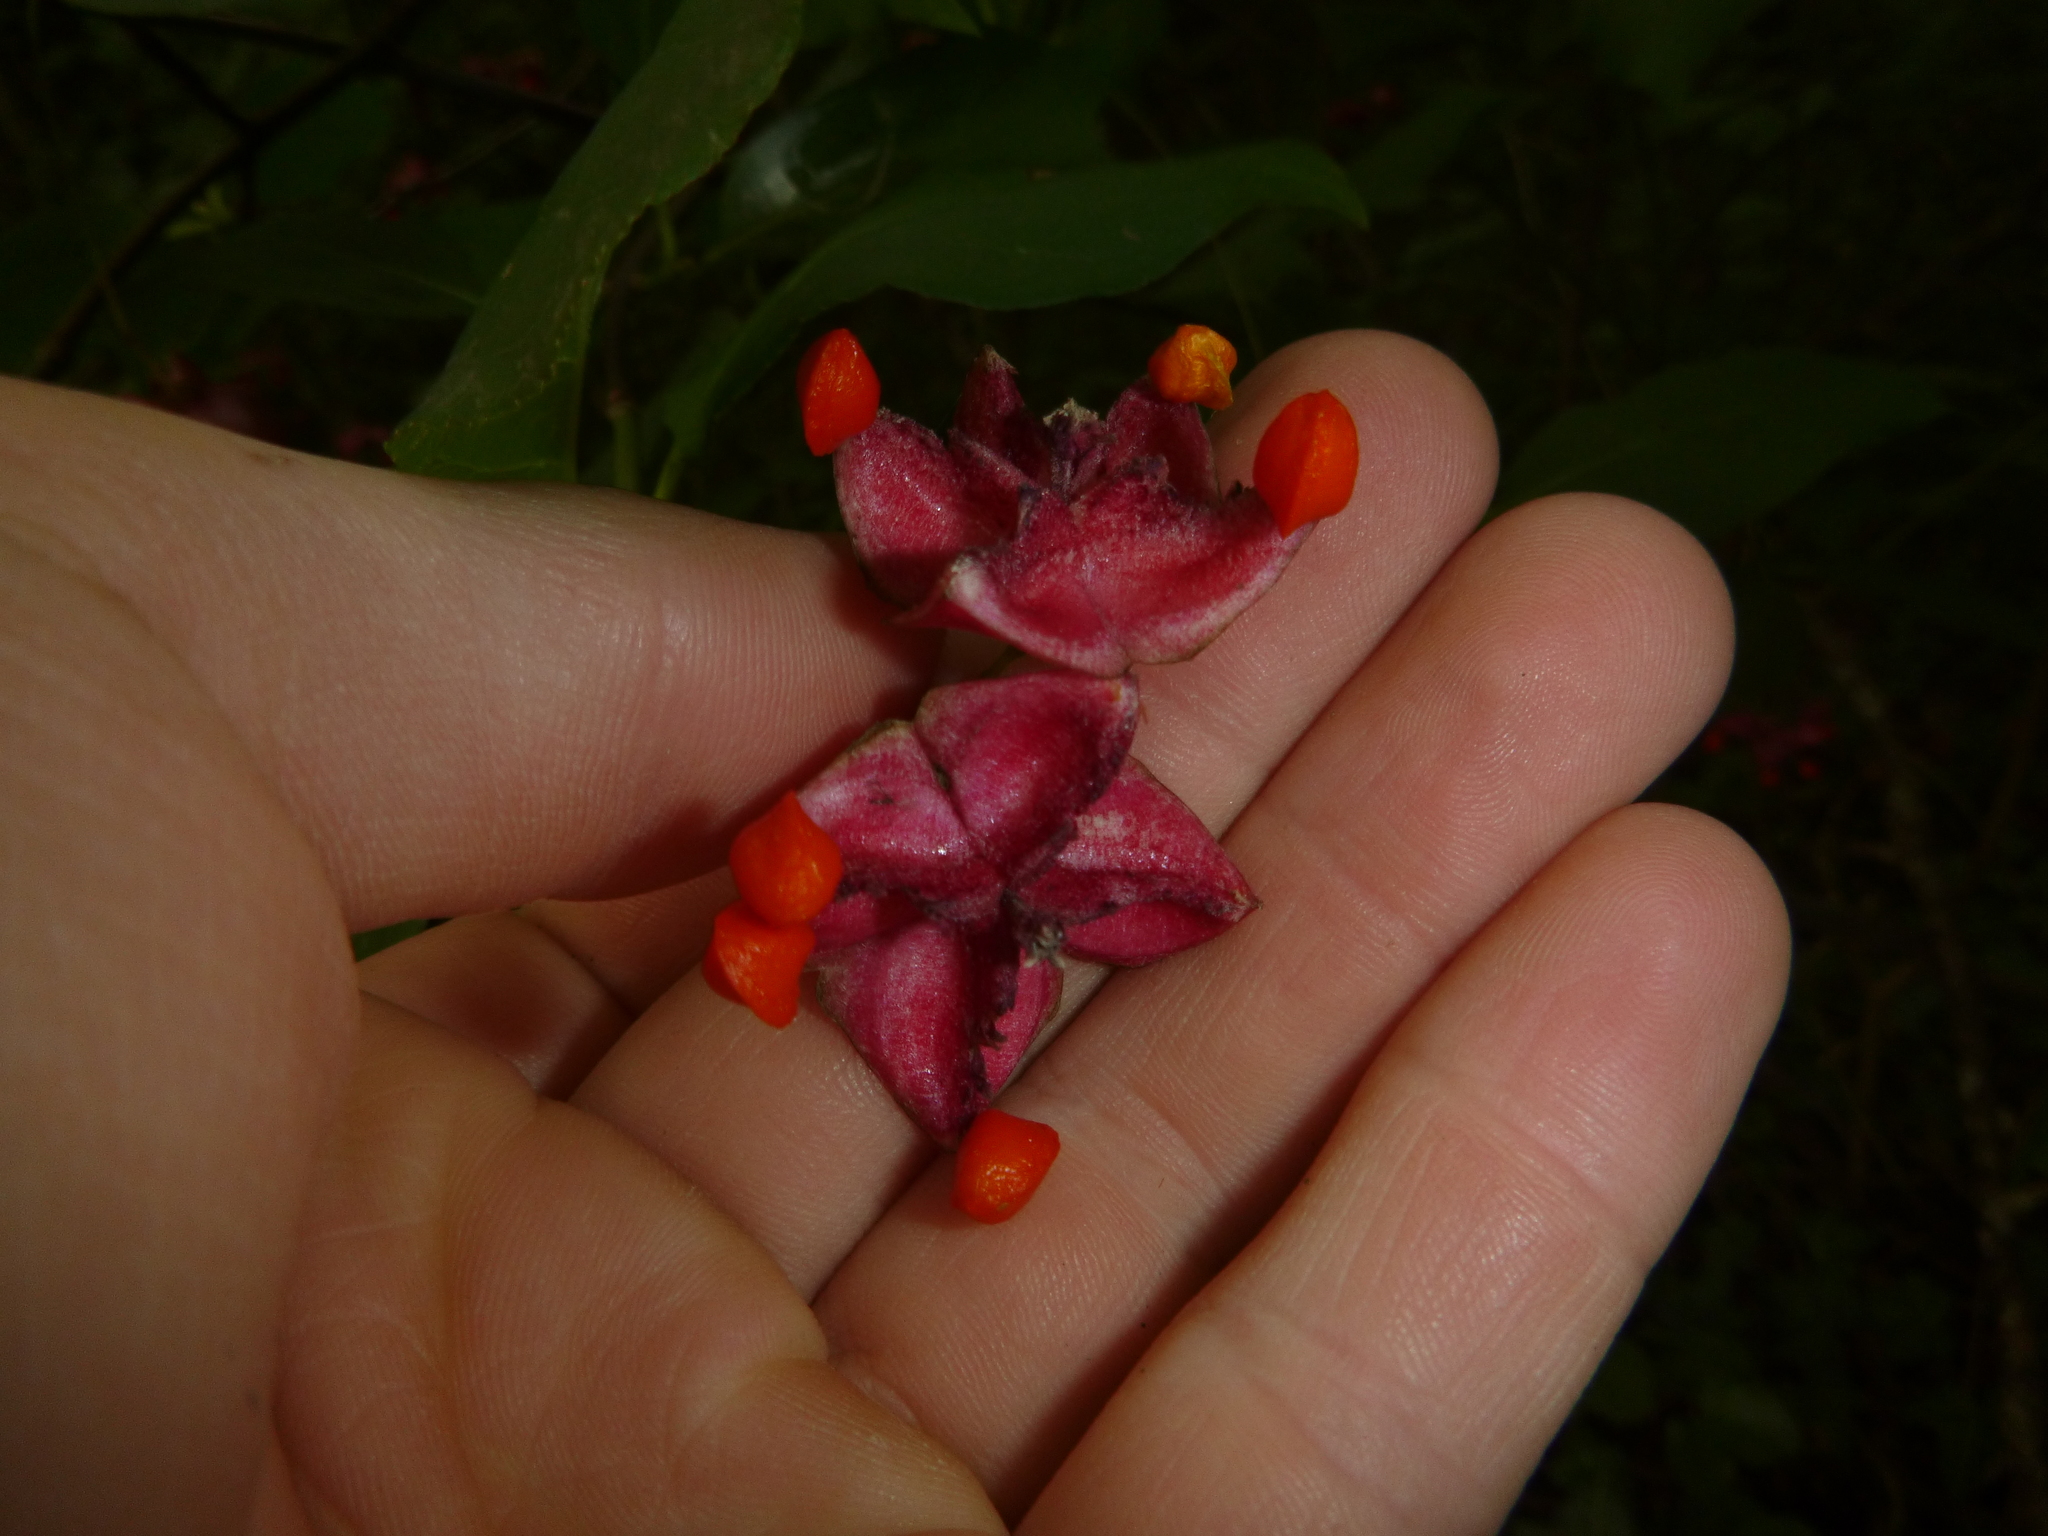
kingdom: Plantae
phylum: Tracheophyta
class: Magnoliopsida
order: Celastrales
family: Celastraceae
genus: Euonymus
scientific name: Euonymus latifolius
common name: Large-leaved spindle
